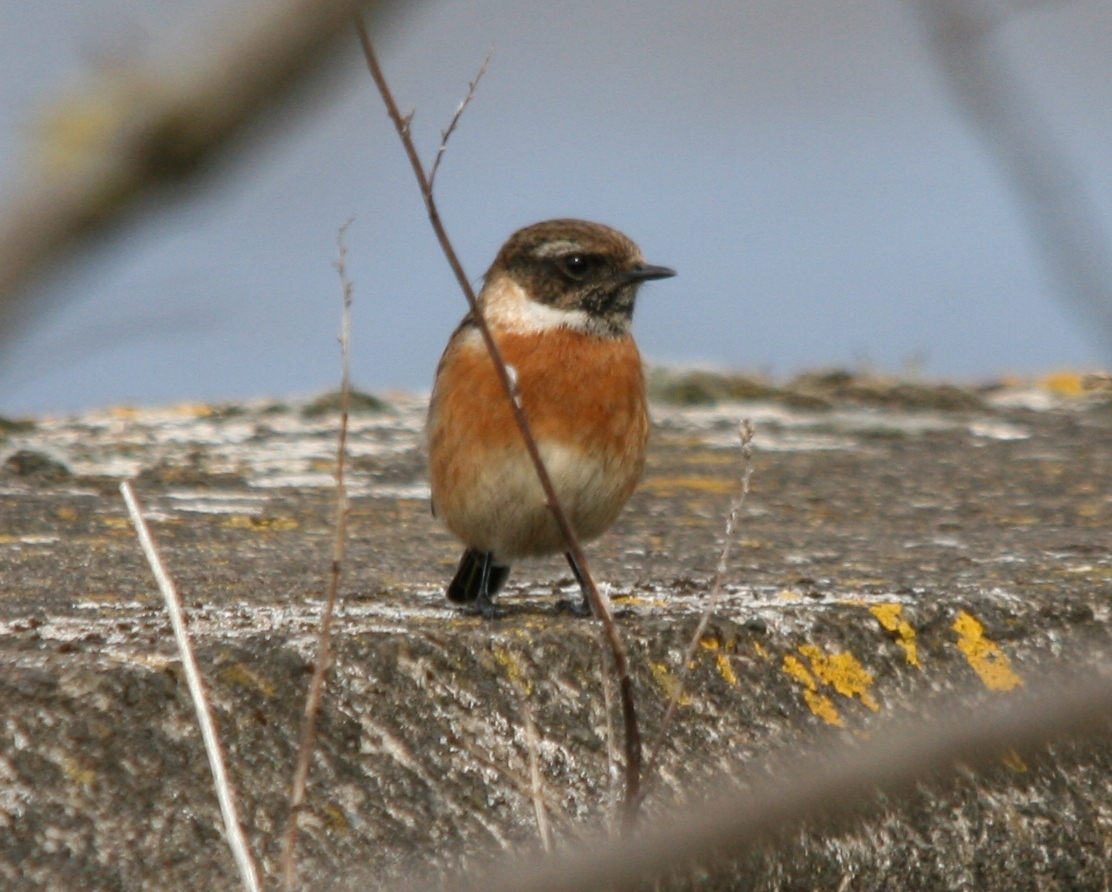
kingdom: Animalia
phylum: Chordata
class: Aves
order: Passeriformes
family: Muscicapidae
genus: Saxicola
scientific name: Saxicola rubicola
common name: European stonechat
